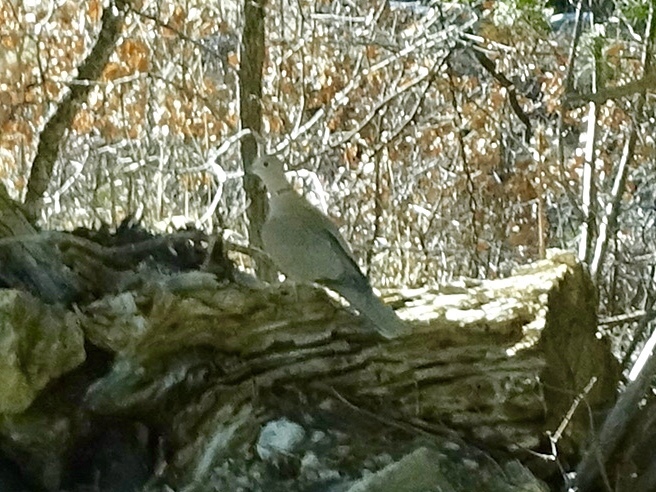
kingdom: Animalia
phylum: Chordata
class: Aves
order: Columbiformes
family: Columbidae
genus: Streptopelia
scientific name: Streptopelia decaocto
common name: Eurasian collared dove
